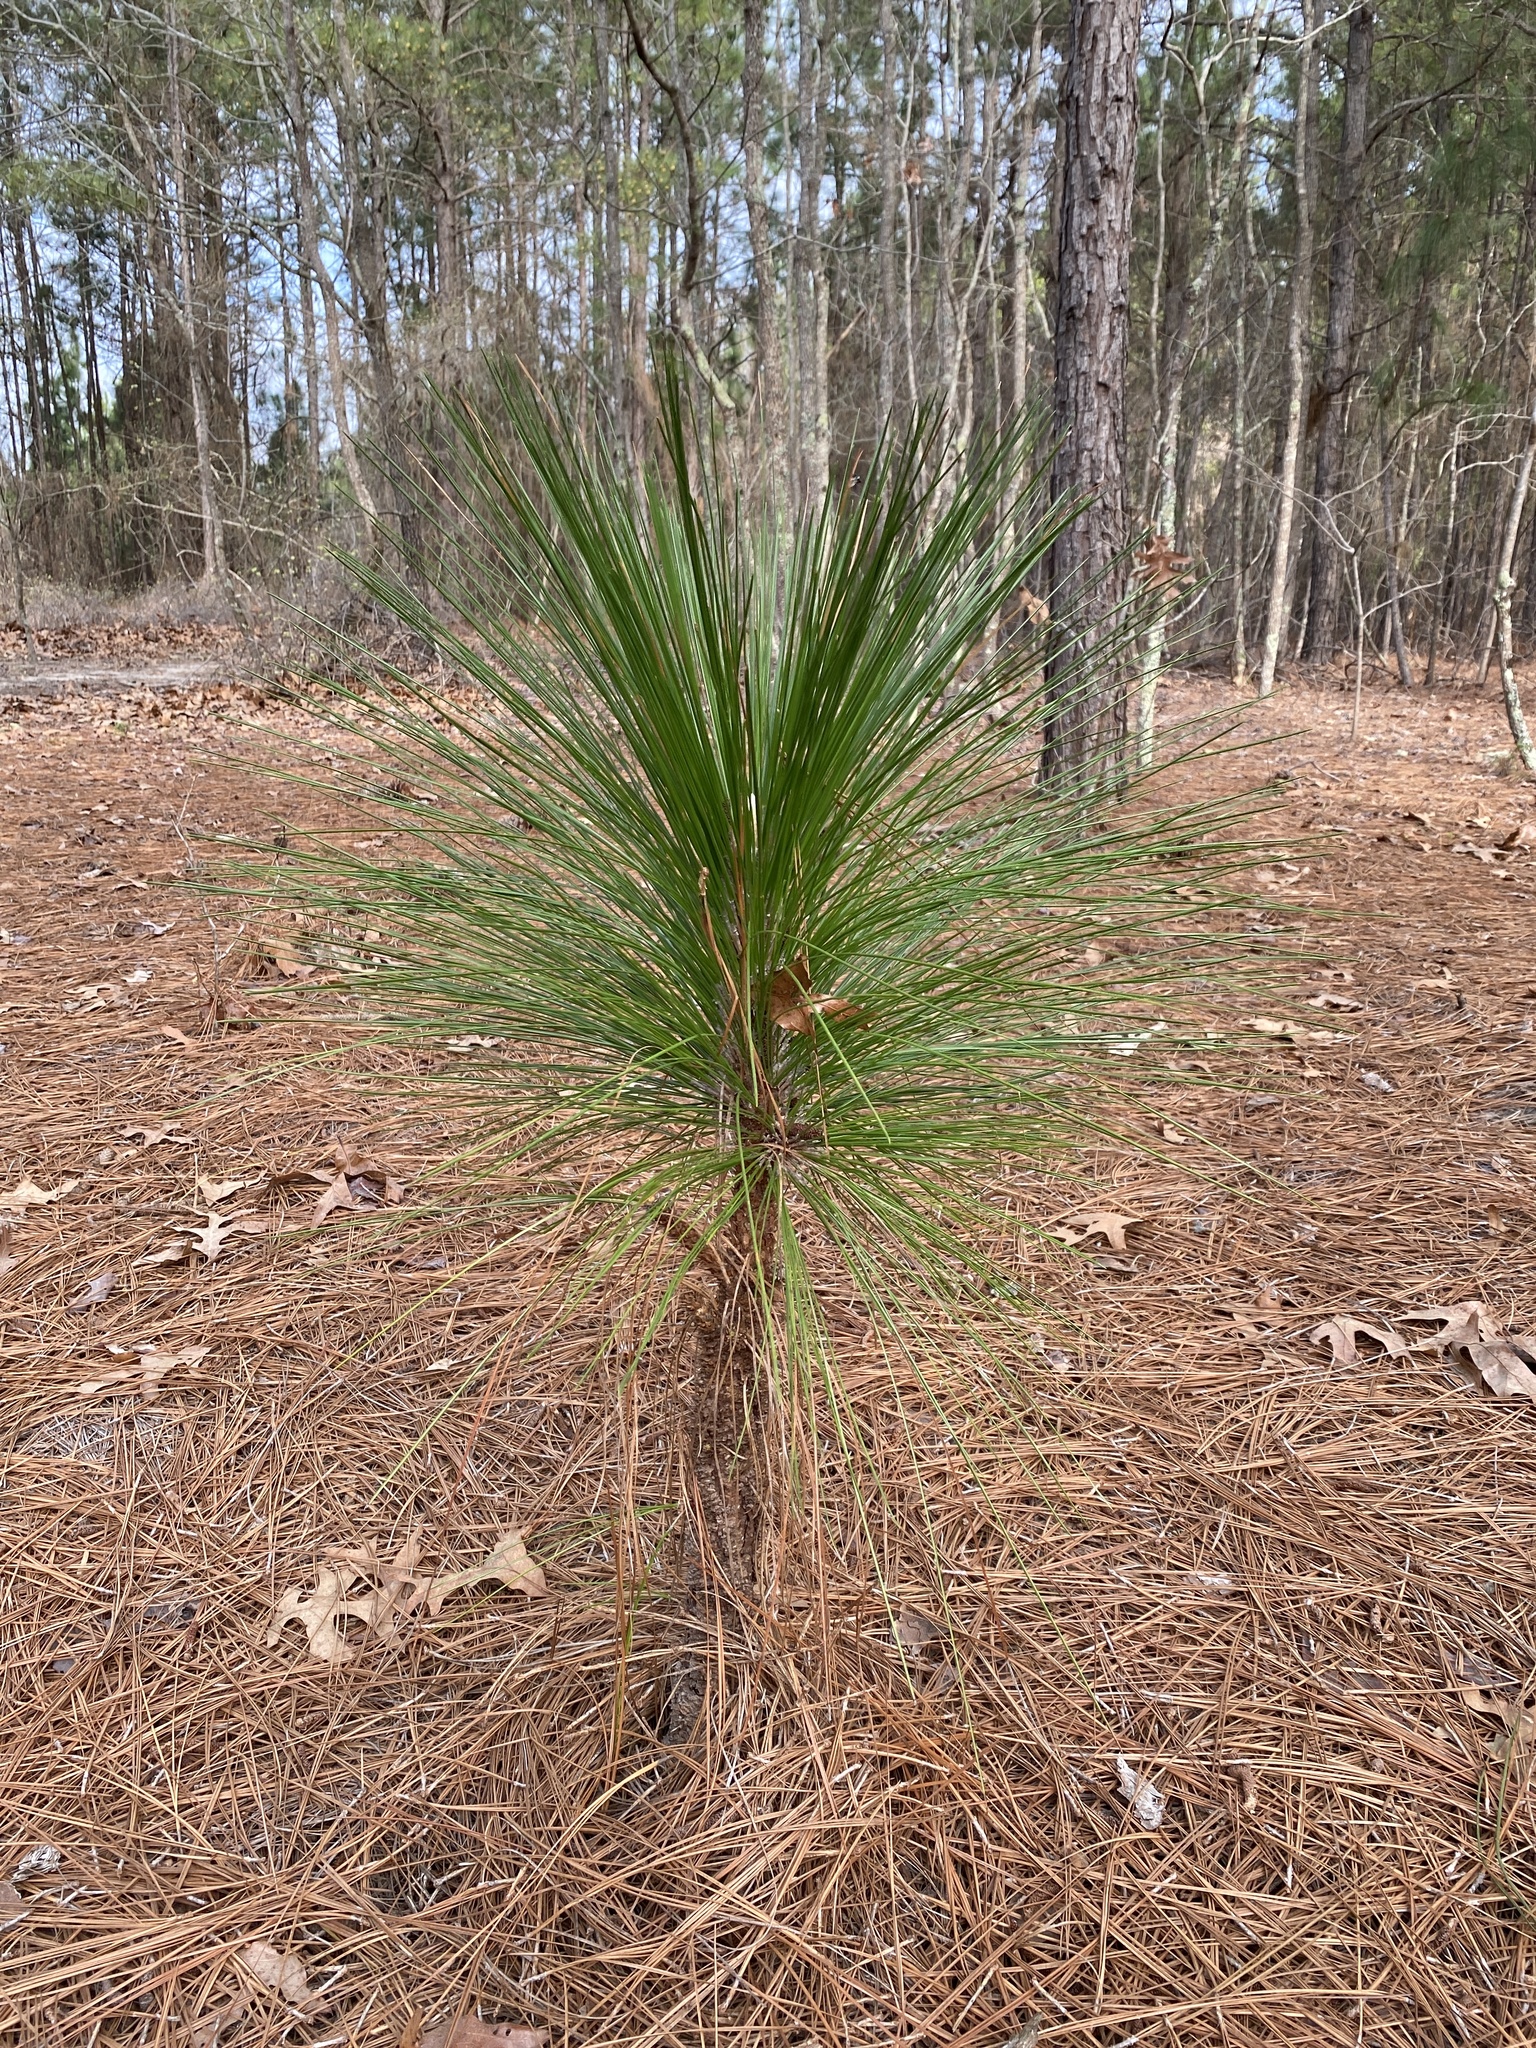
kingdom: Plantae
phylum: Tracheophyta
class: Pinopsida
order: Pinales
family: Pinaceae
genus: Pinus
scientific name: Pinus palustris
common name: Longleaf pine
